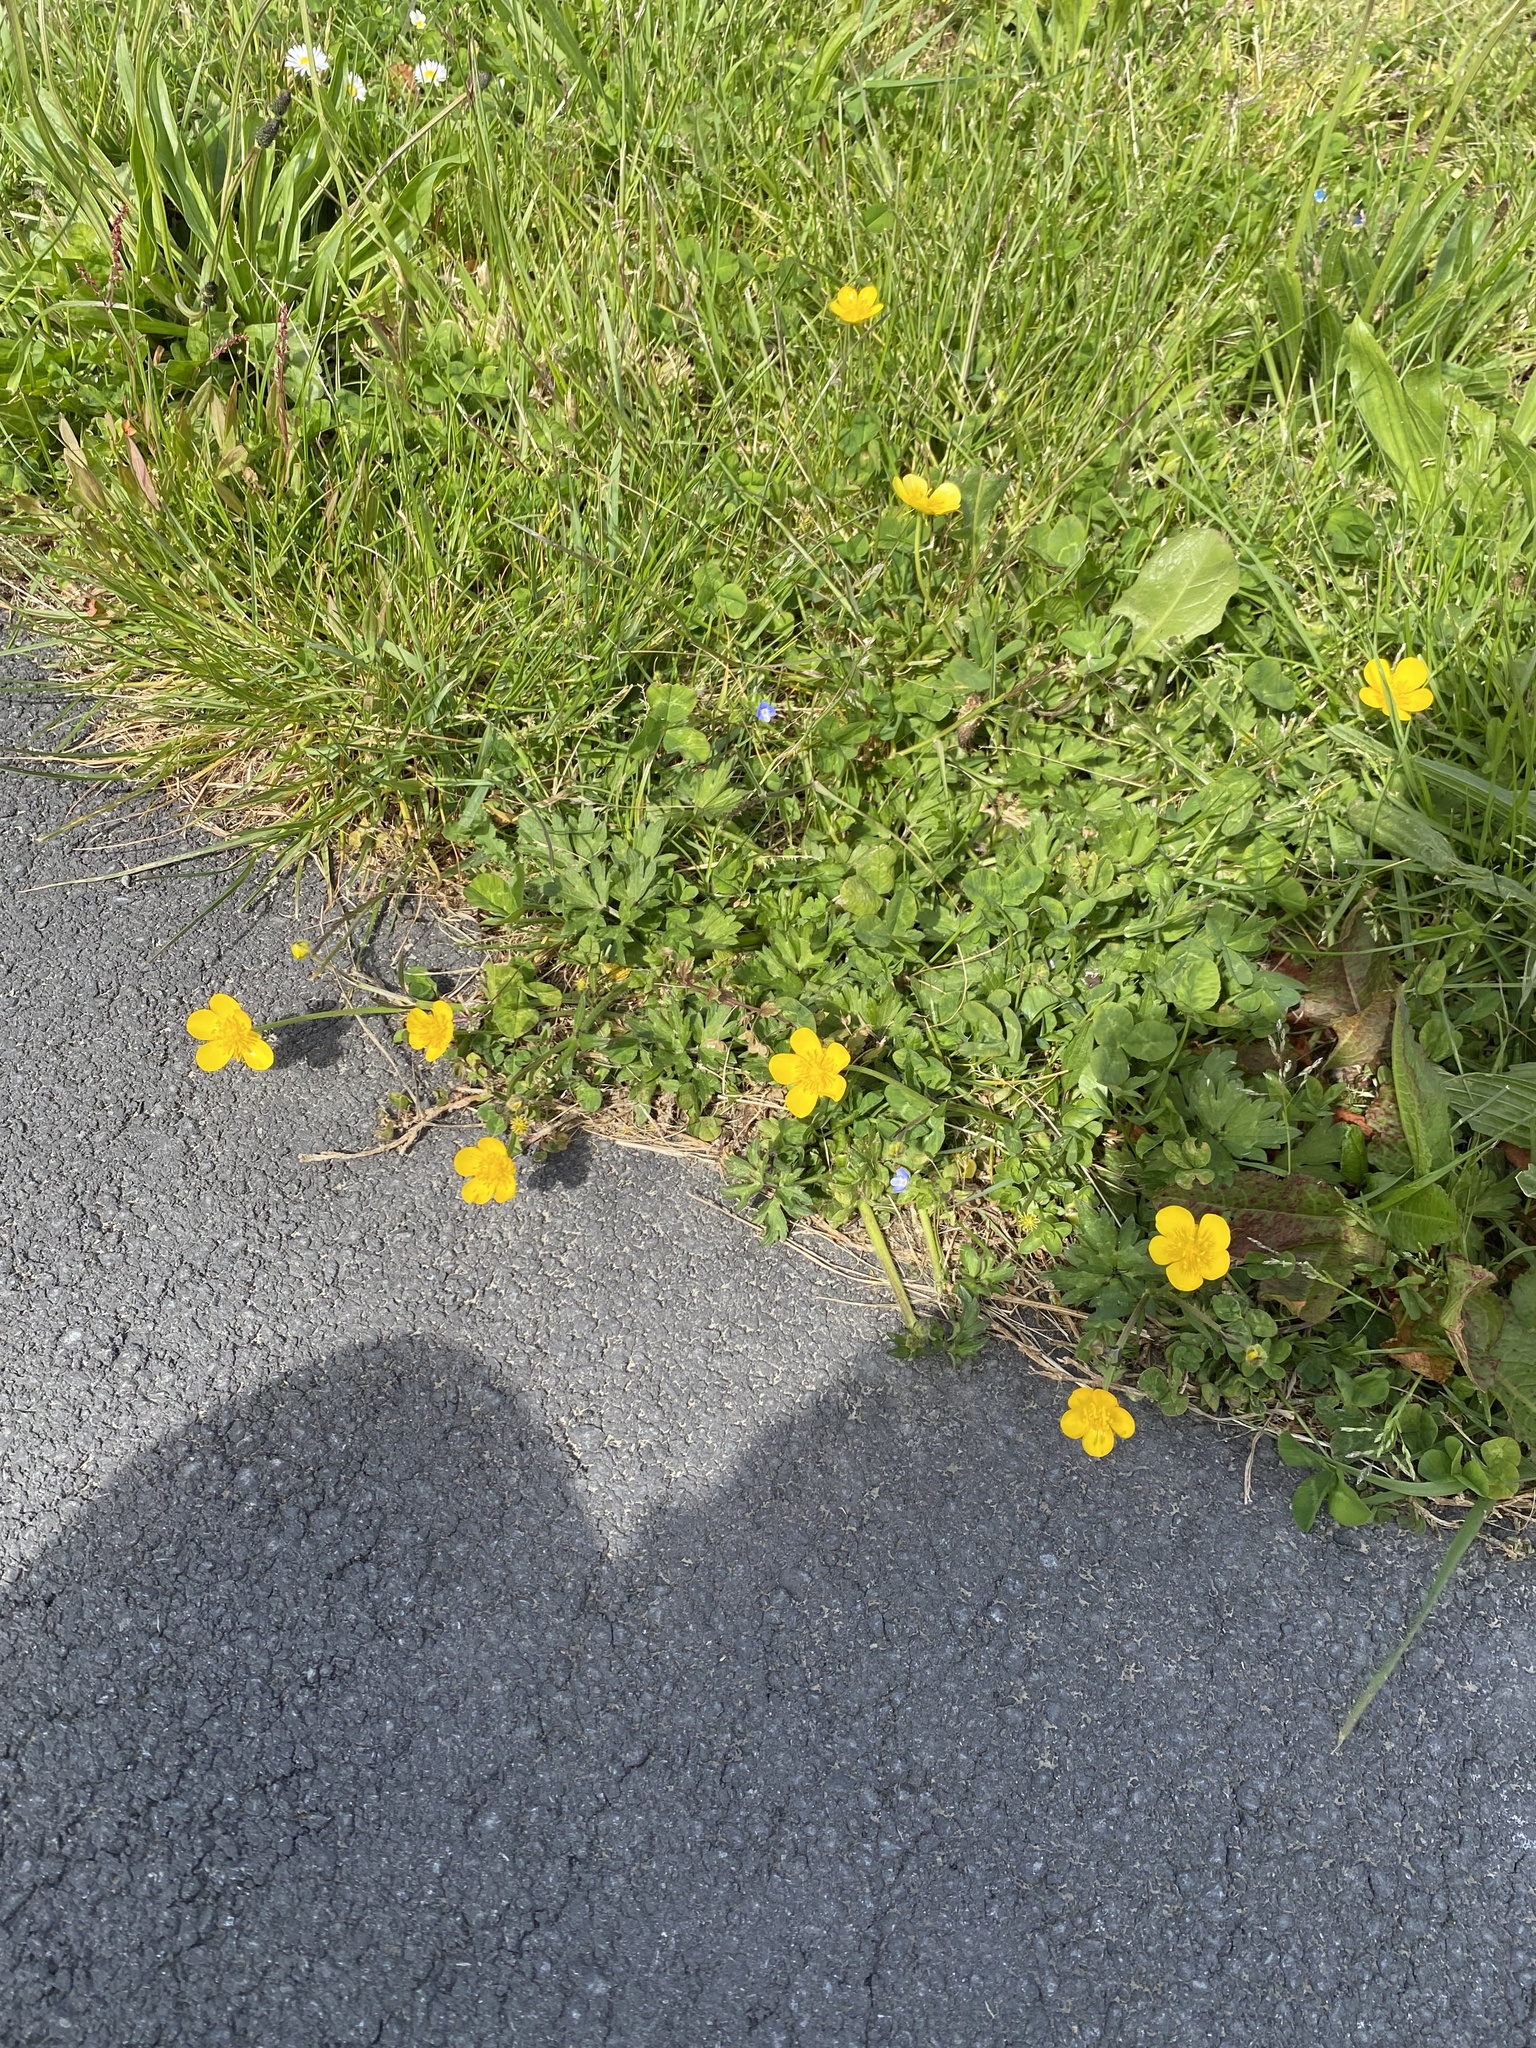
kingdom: Plantae
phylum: Tracheophyta
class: Magnoliopsida
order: Ranunculales
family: Ranunculaceae
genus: Ranunculus
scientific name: Ranunculus repens
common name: Creeping buttercup
